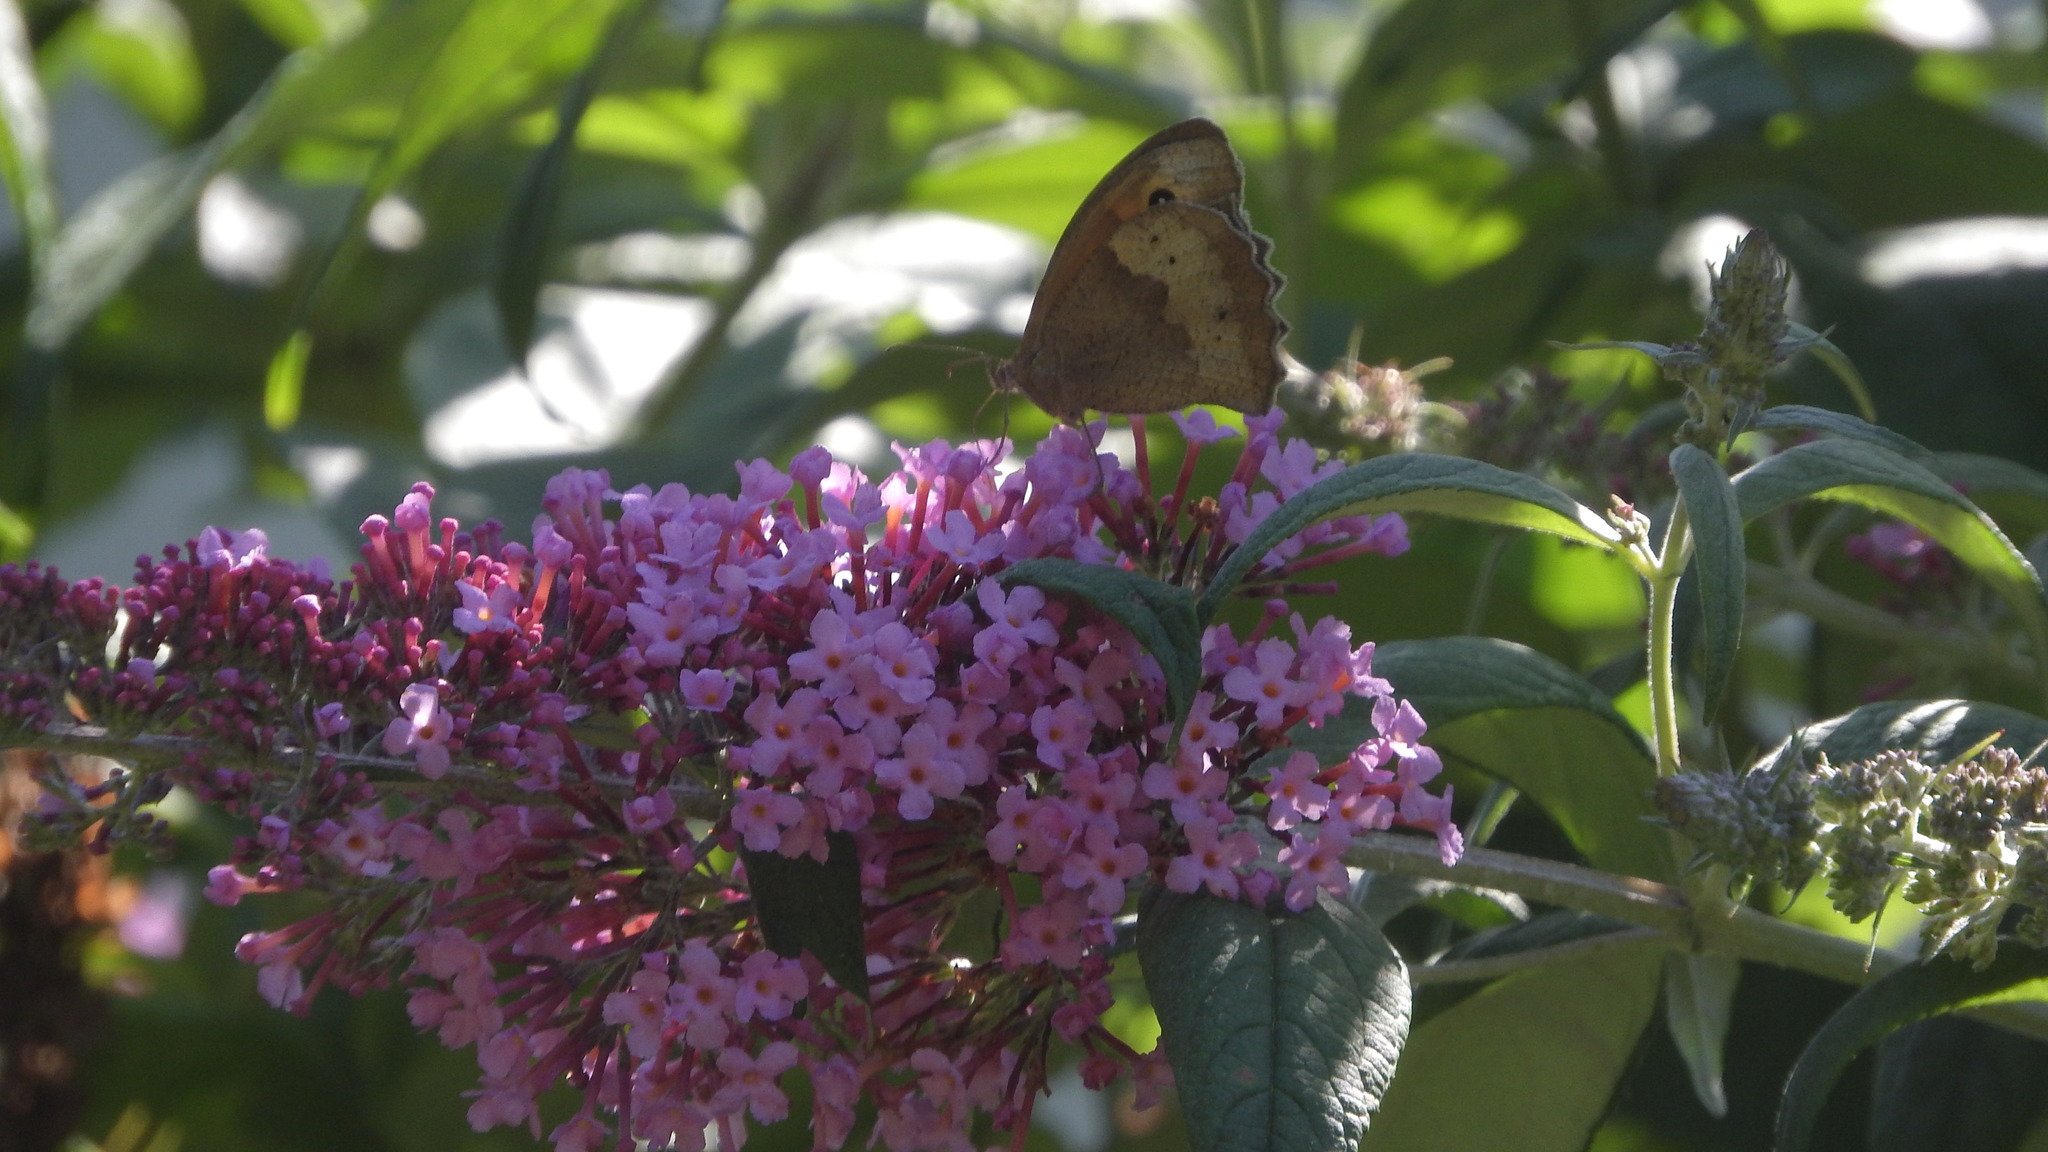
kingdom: Animalia
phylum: Arthropoda
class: Insecta
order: Lepidoptera
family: Nymphalidae
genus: Maniola
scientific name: Maniola jurtina
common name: Meadow brown
